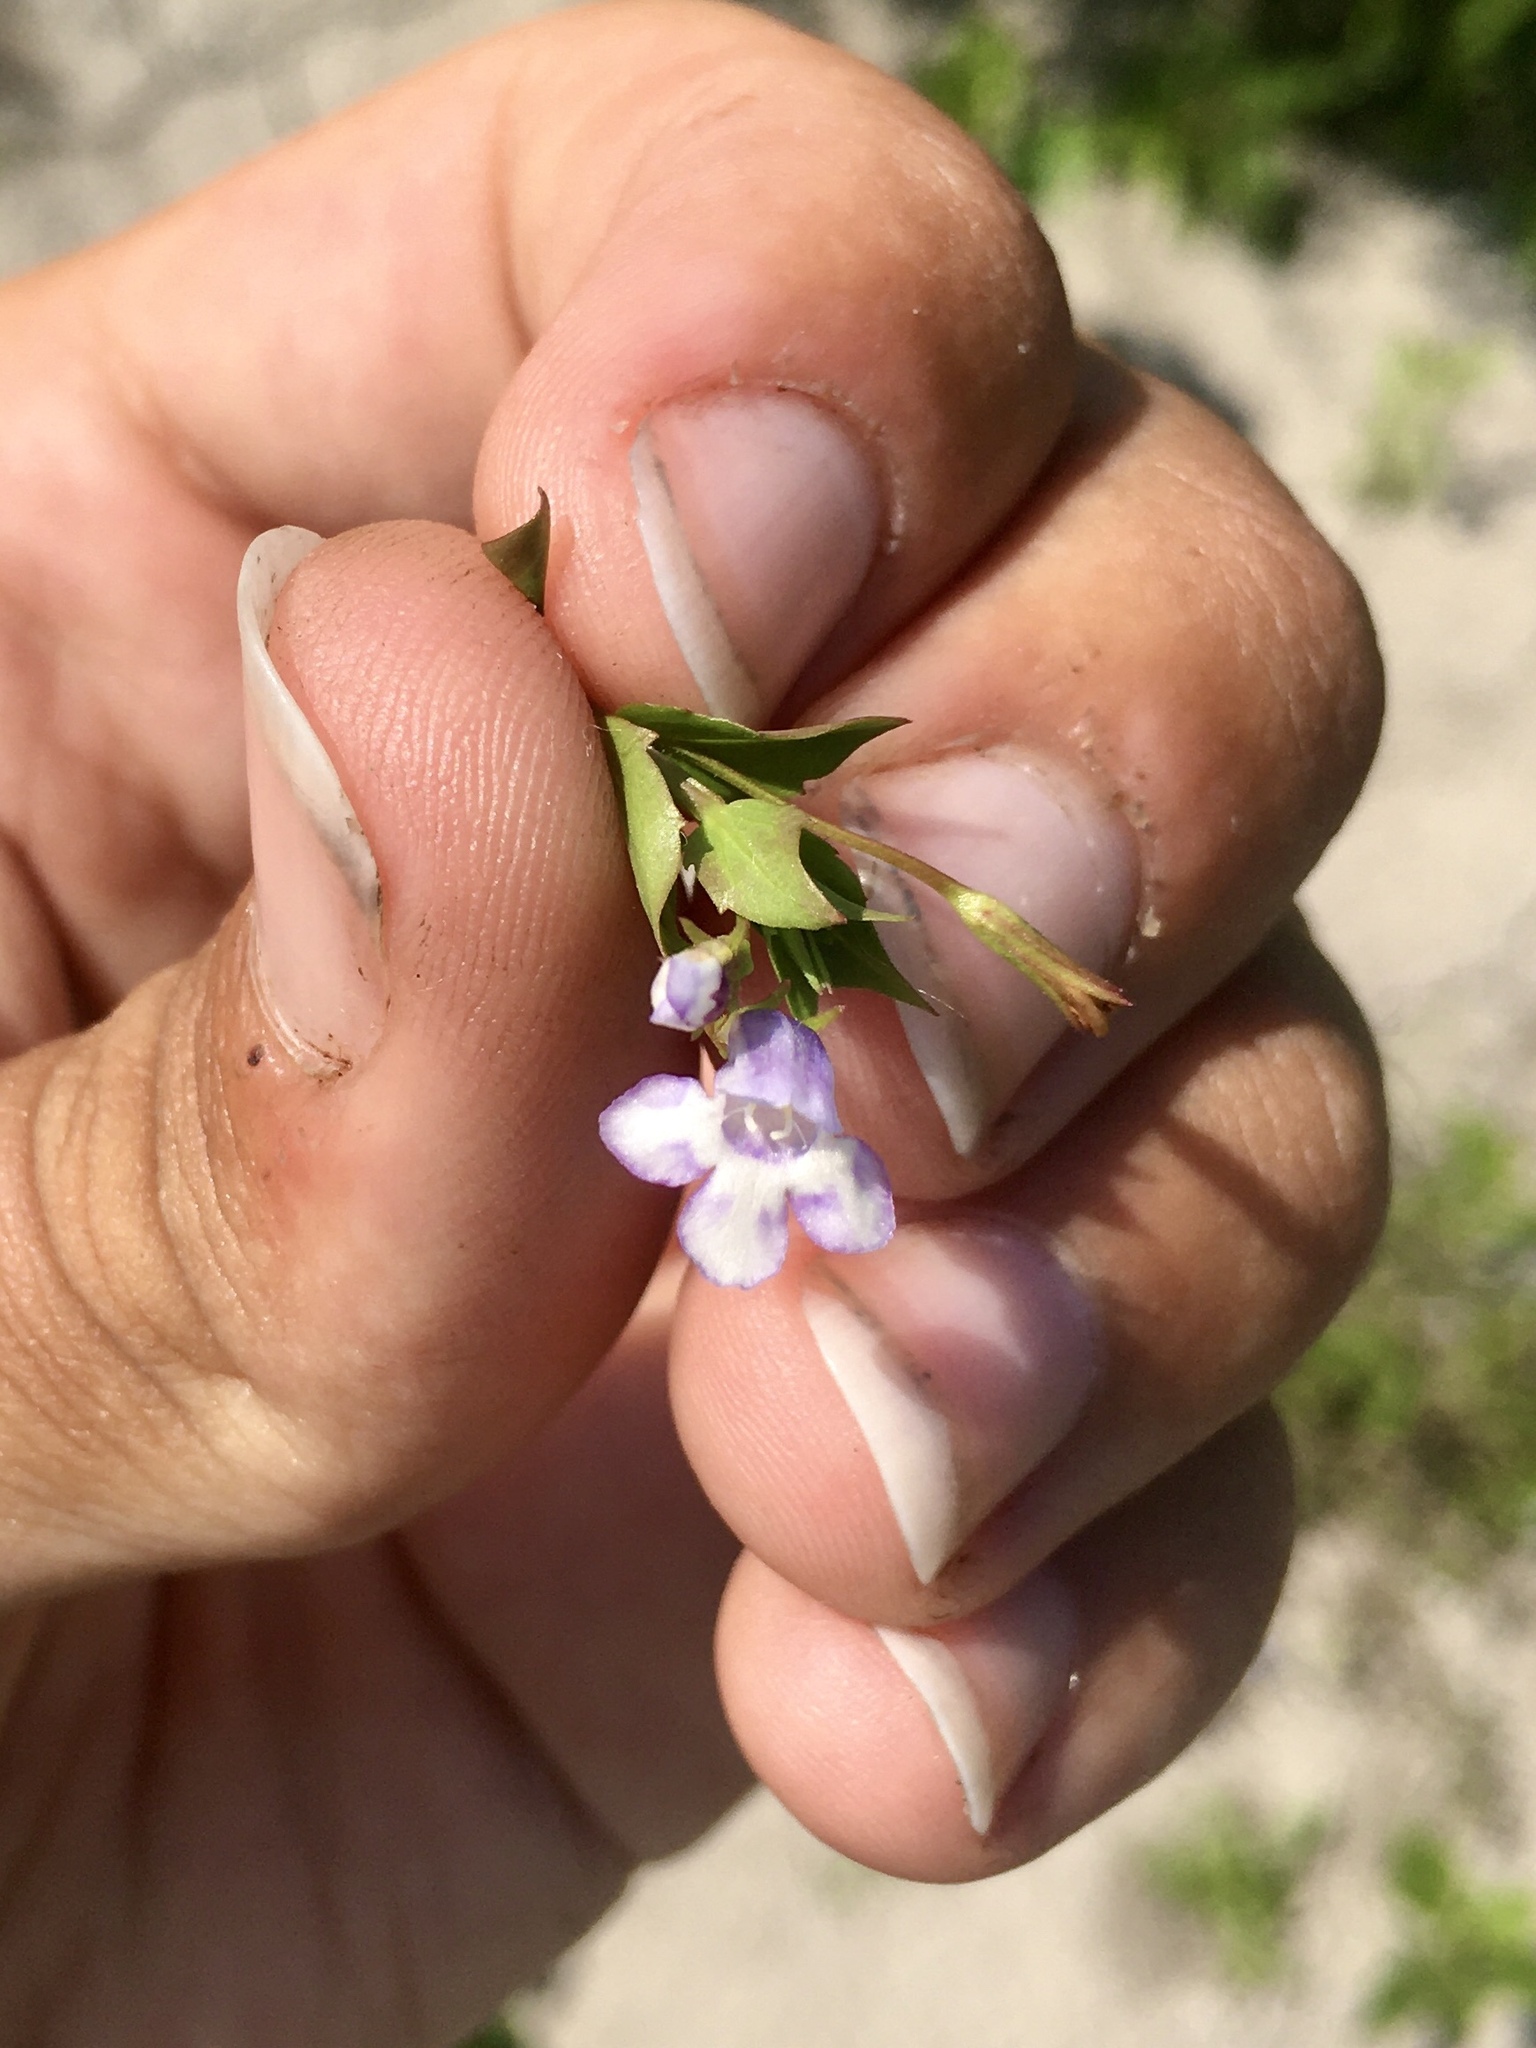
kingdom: Plantae
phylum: Tracheophyta
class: Magnoliopsida
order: Lamiales
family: Linderniaceae
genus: Lindernia
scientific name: Lindernia dubia
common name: Annual false pimpernel
